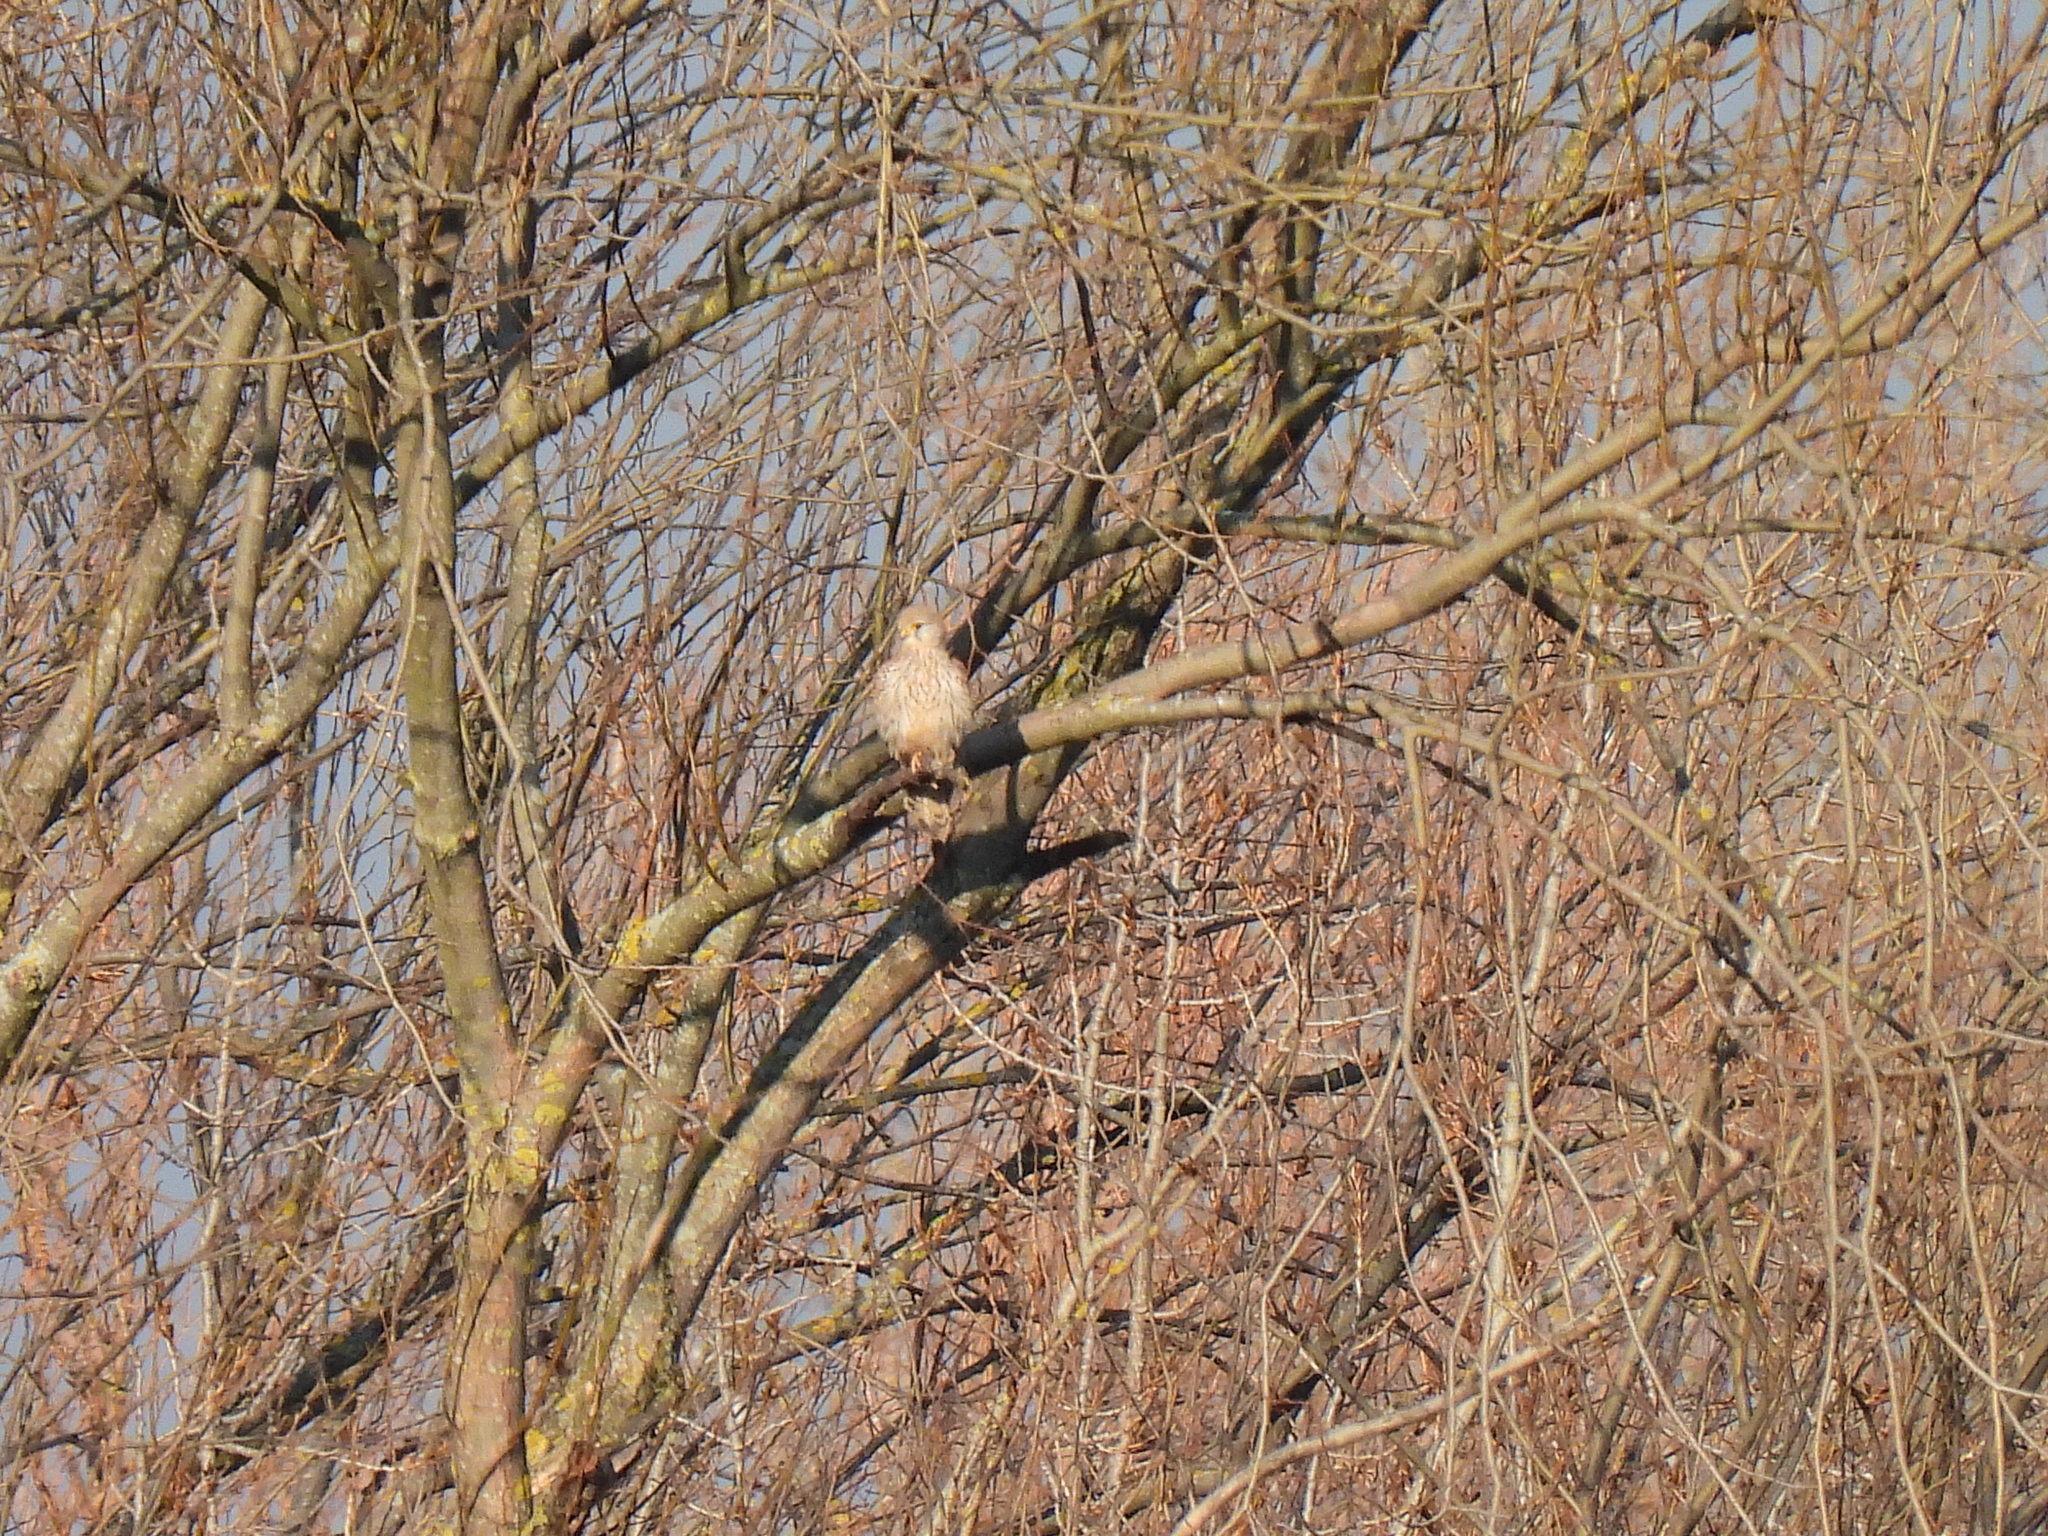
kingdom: Animalia
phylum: Chordata
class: Aves
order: Falconiformes
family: Falconidae
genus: Falco
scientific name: Falco tinnunculus
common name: Common kestrel
